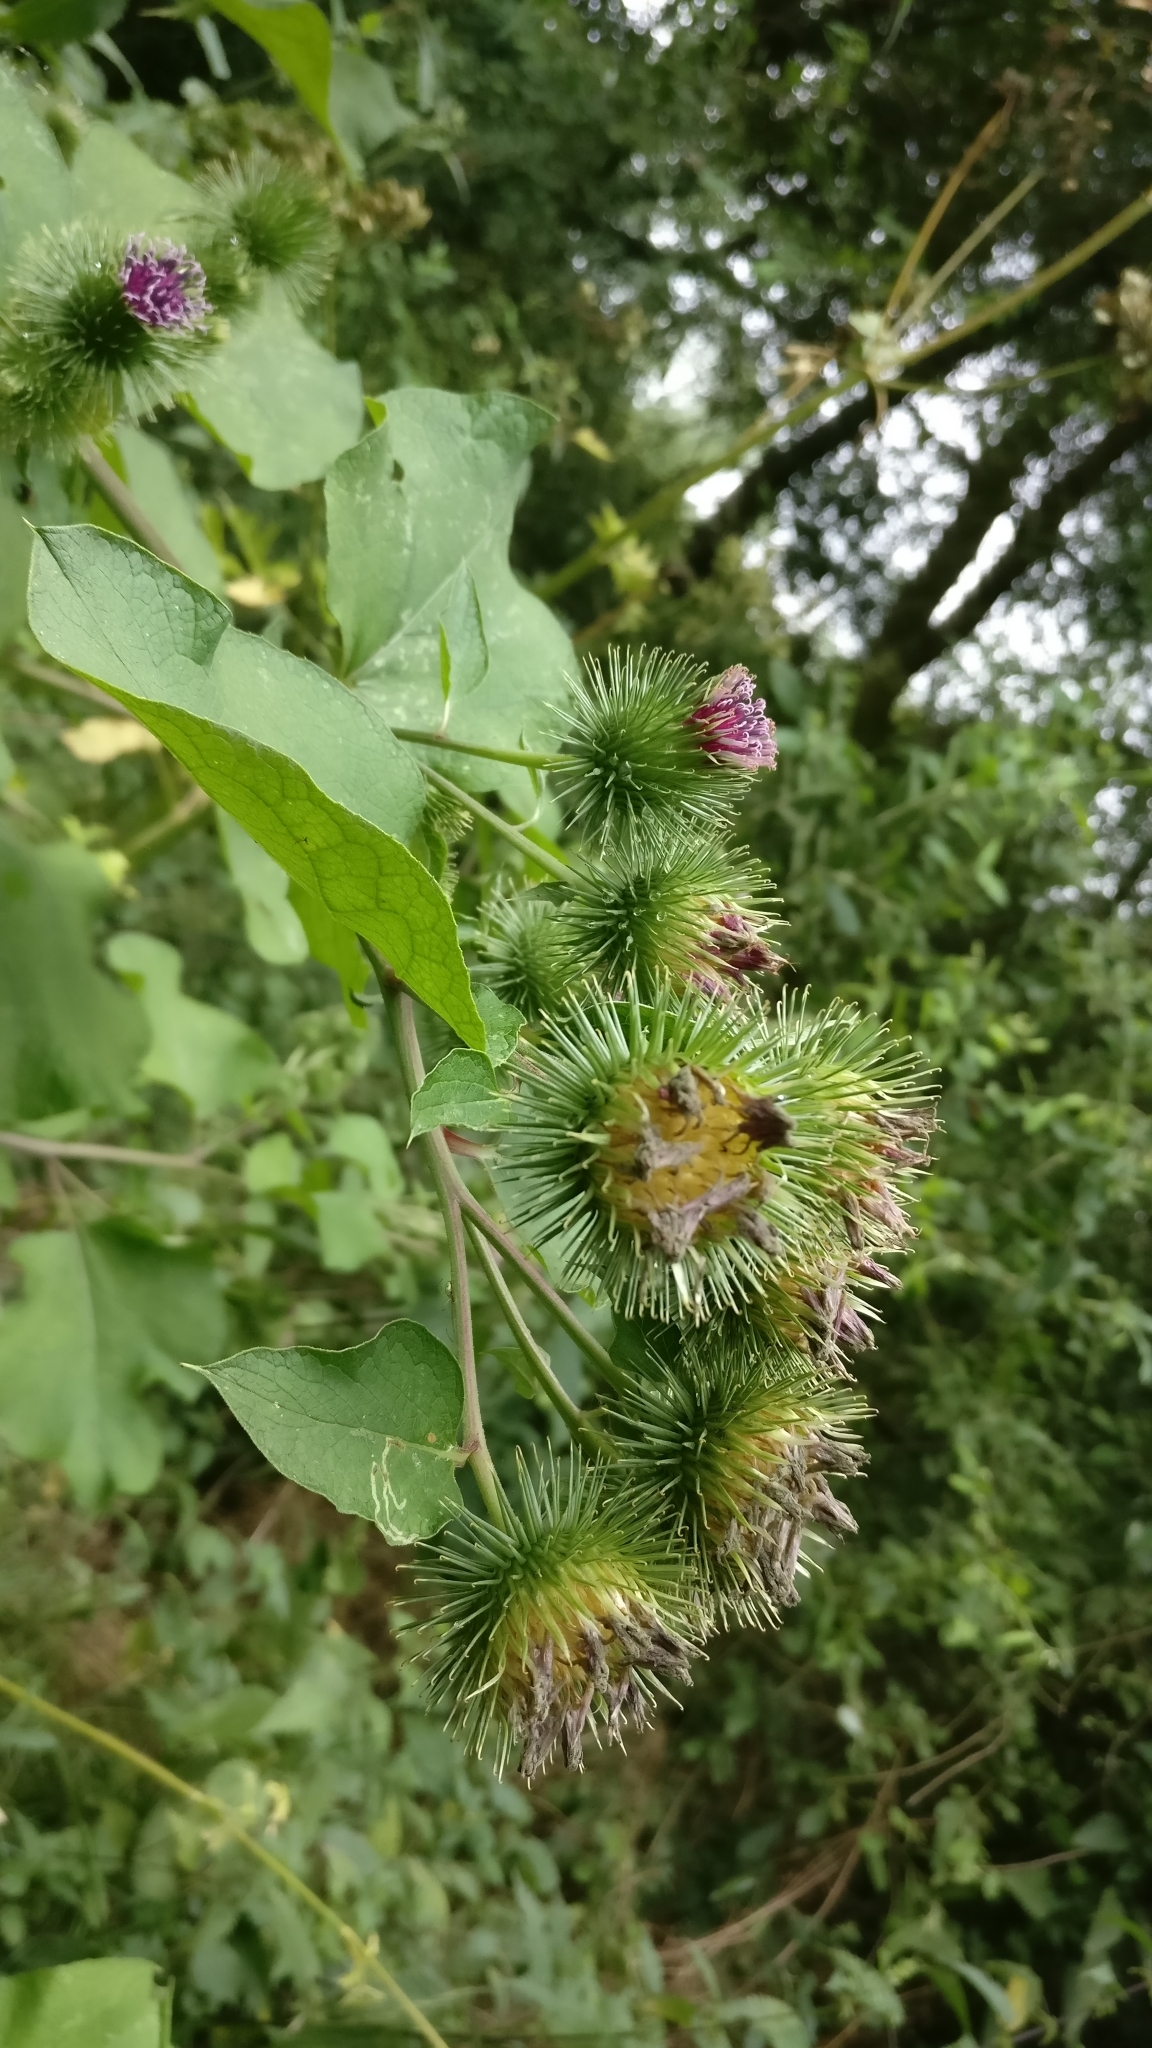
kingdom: Plantae
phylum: Tracheophyta
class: Magnoliopsida
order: Asterales
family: Asteraceae
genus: Arctium
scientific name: Arctium lappa
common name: Greater burdock
